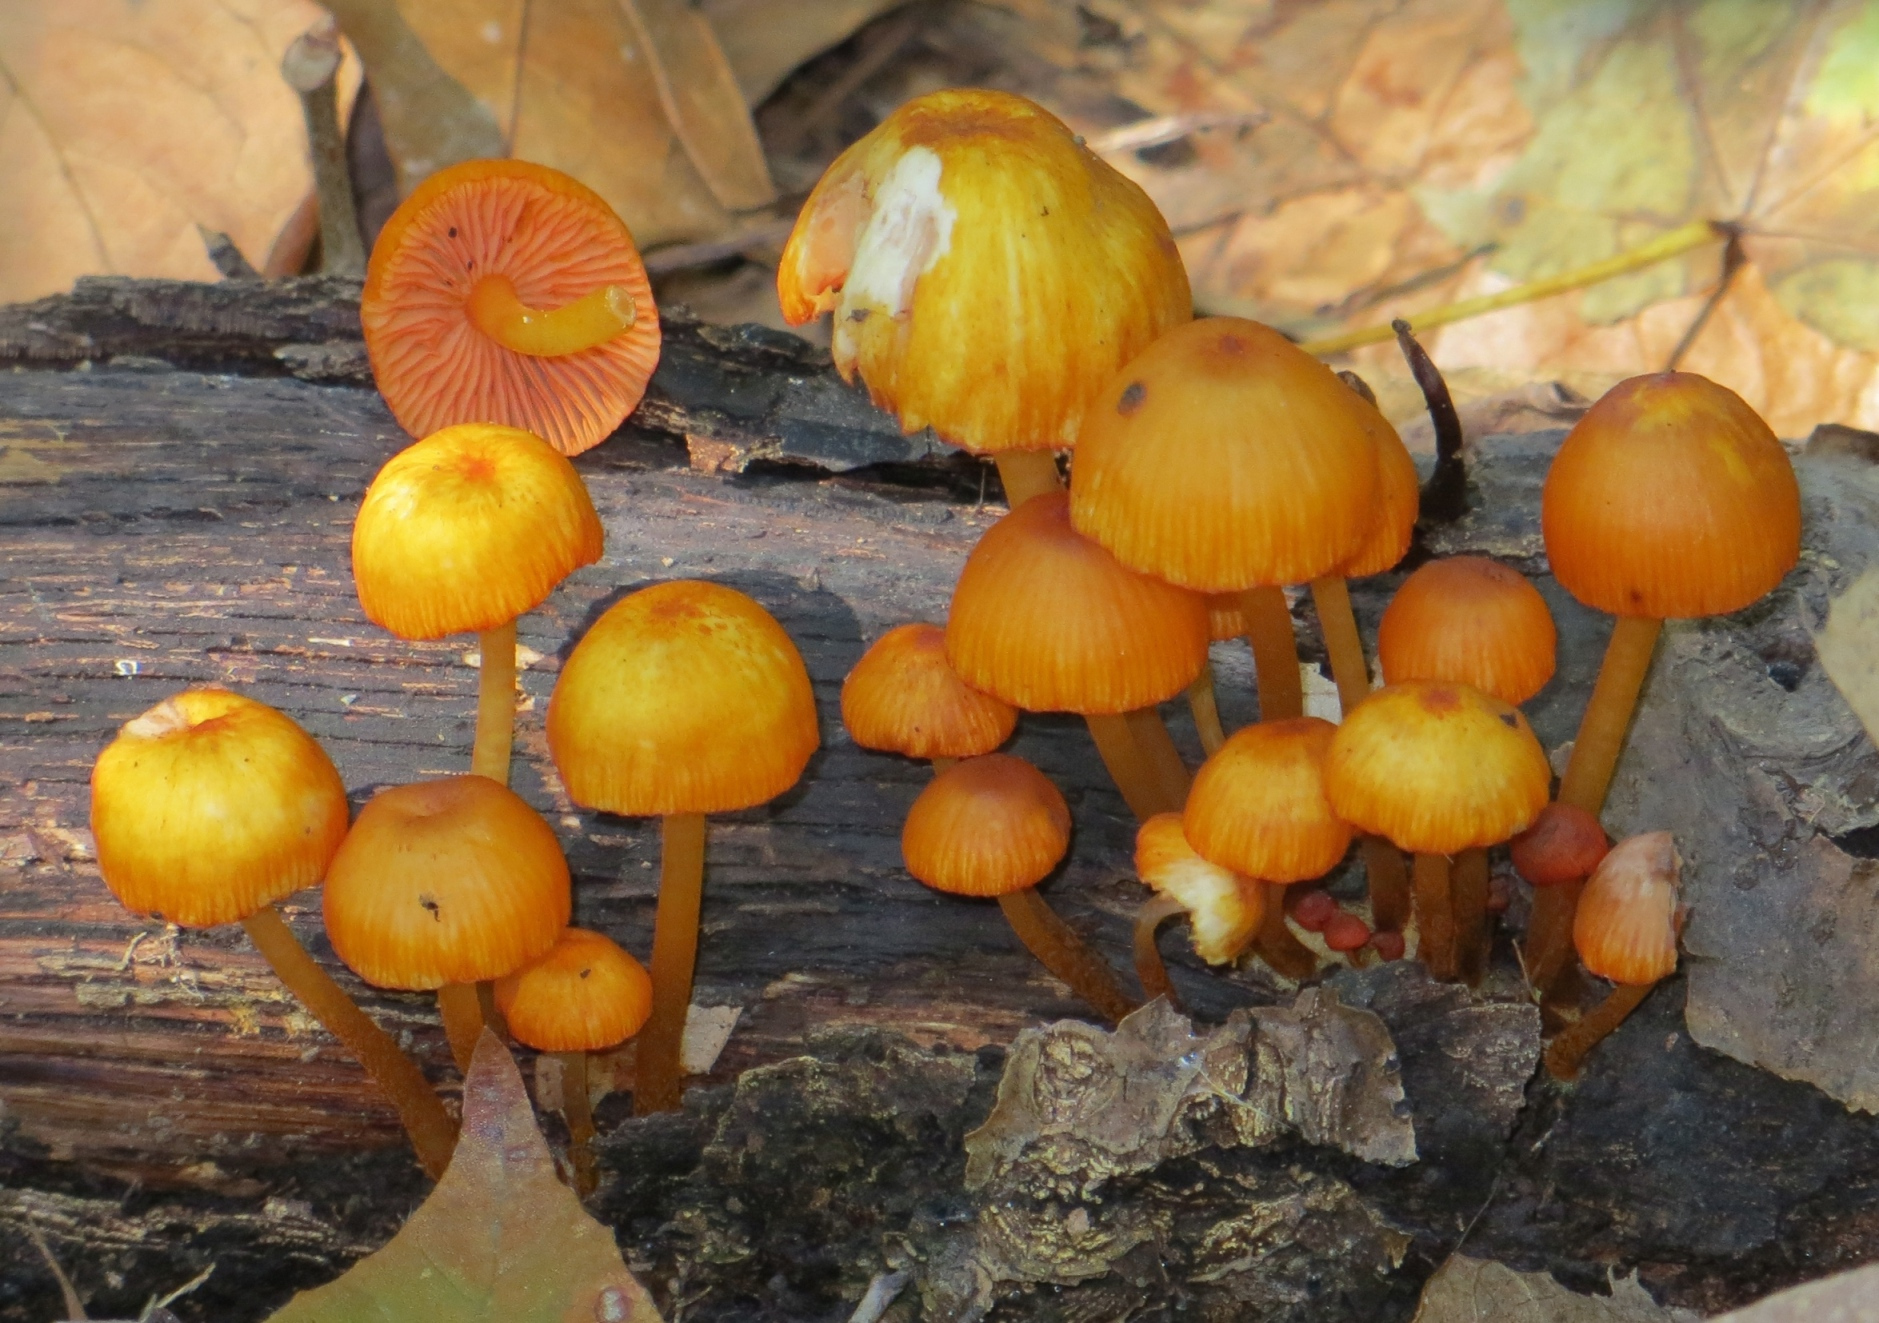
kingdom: Fungi
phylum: Basidiomycota
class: Agaricomycetes
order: Agaricales
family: Mycenaceae
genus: Mycena
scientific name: Mycena leaiana
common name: Orange mycena
